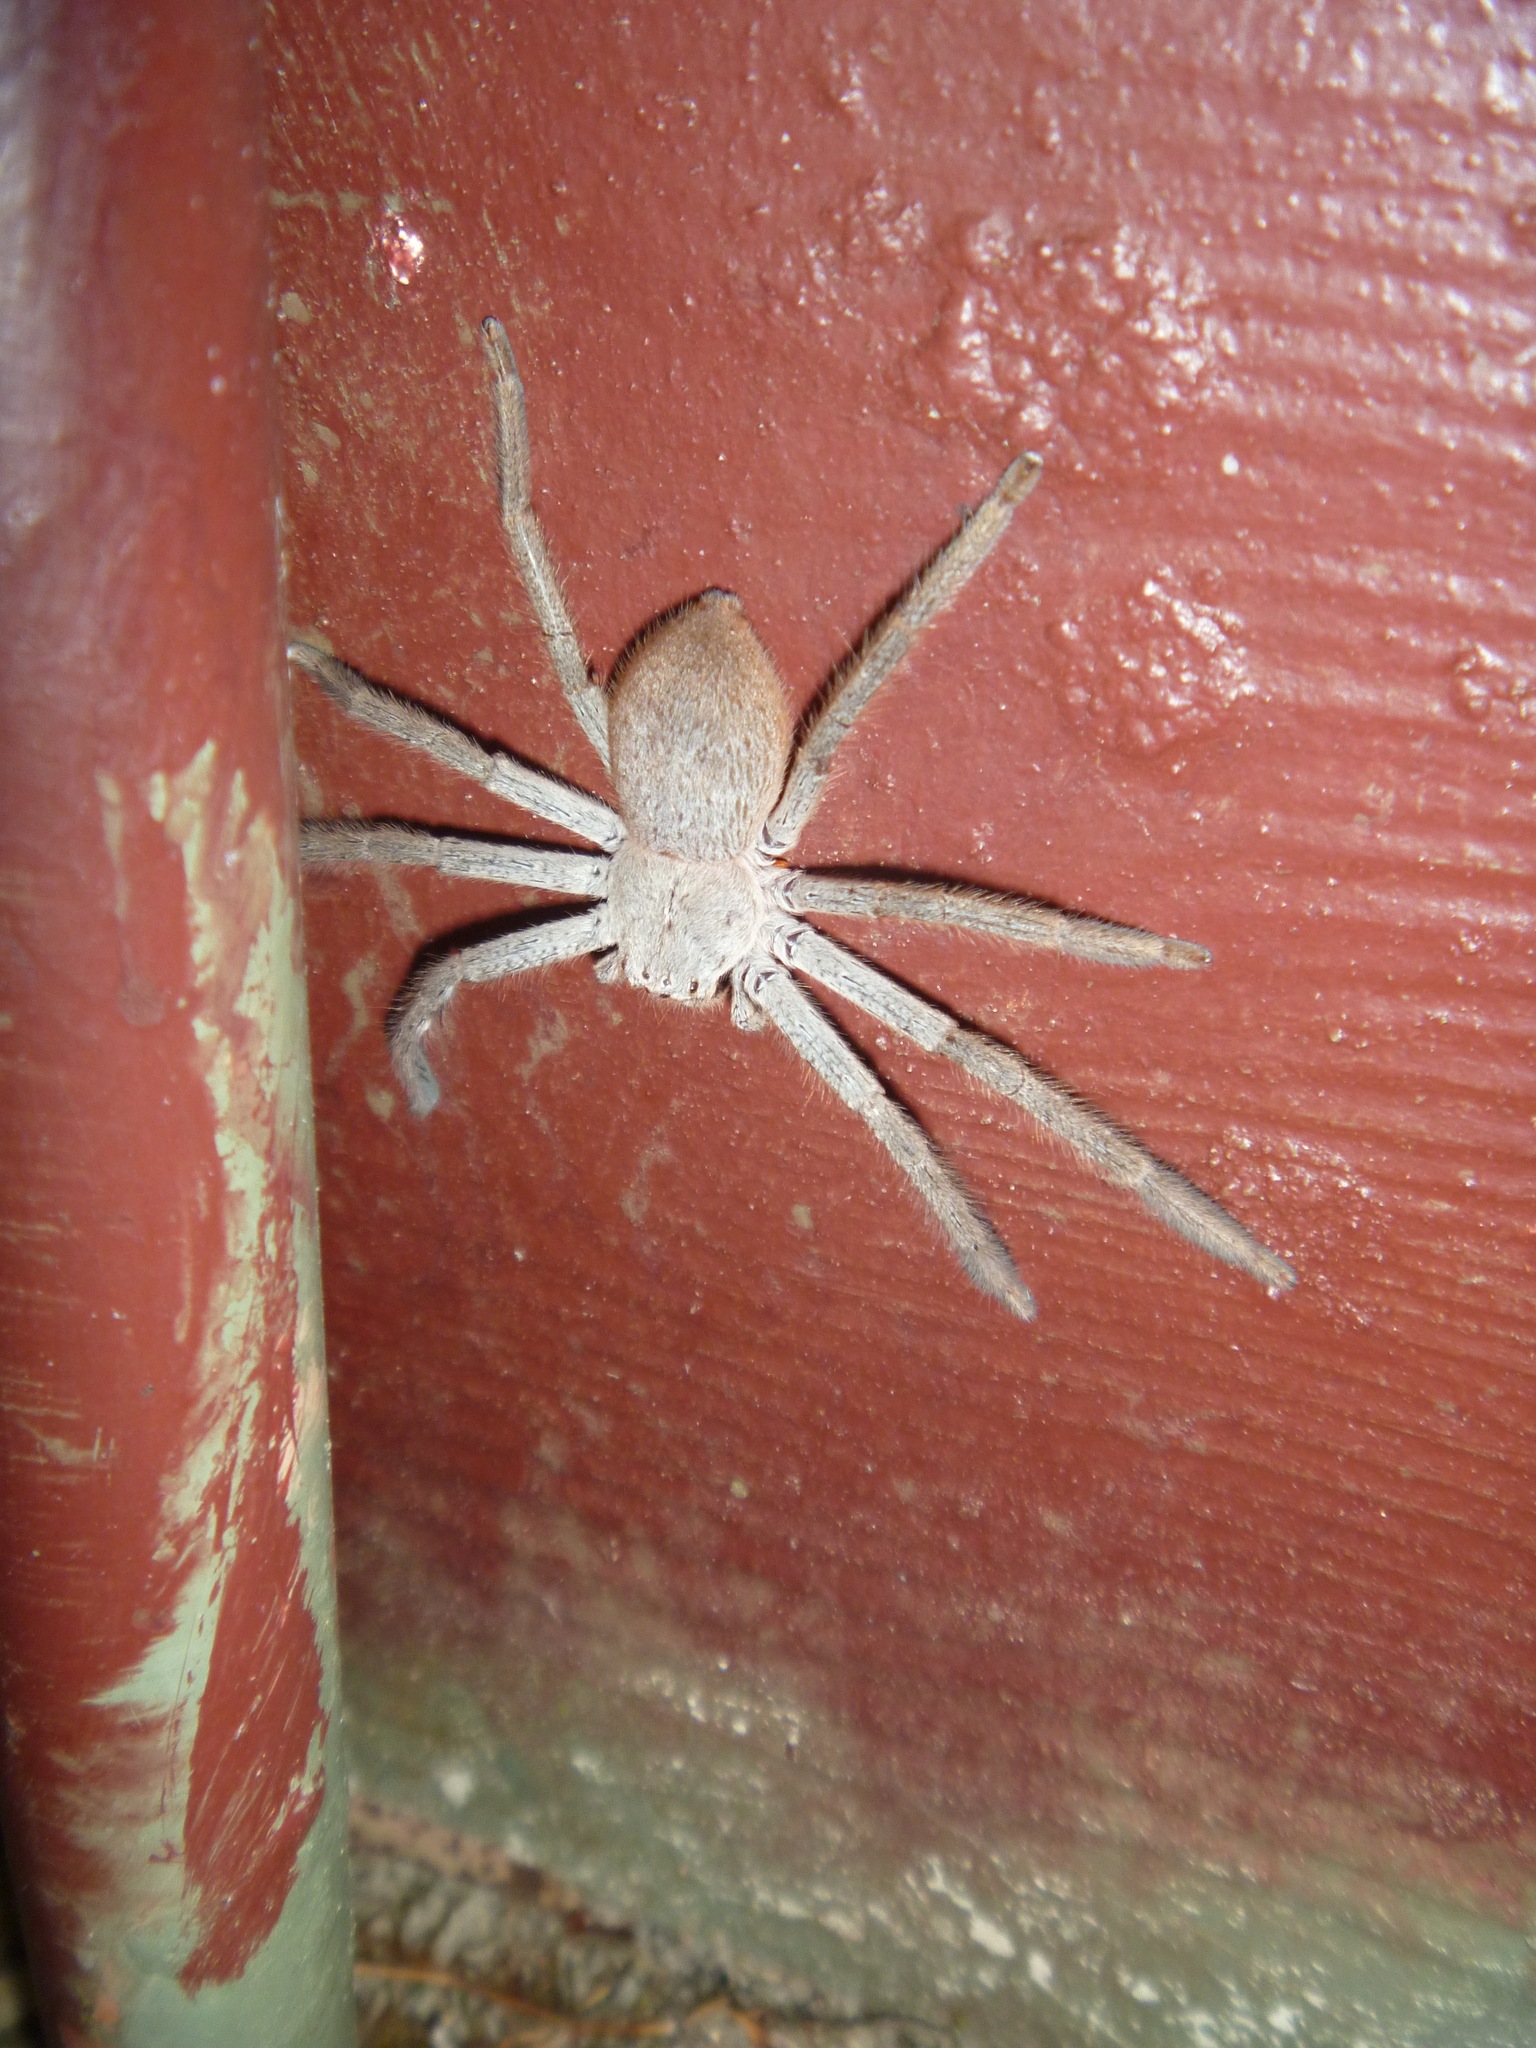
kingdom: Animalia
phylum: Arthropoda
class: Arachnida
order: Araneae
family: Sparassidae
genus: Isopeda
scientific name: Isopeda leishmanni
